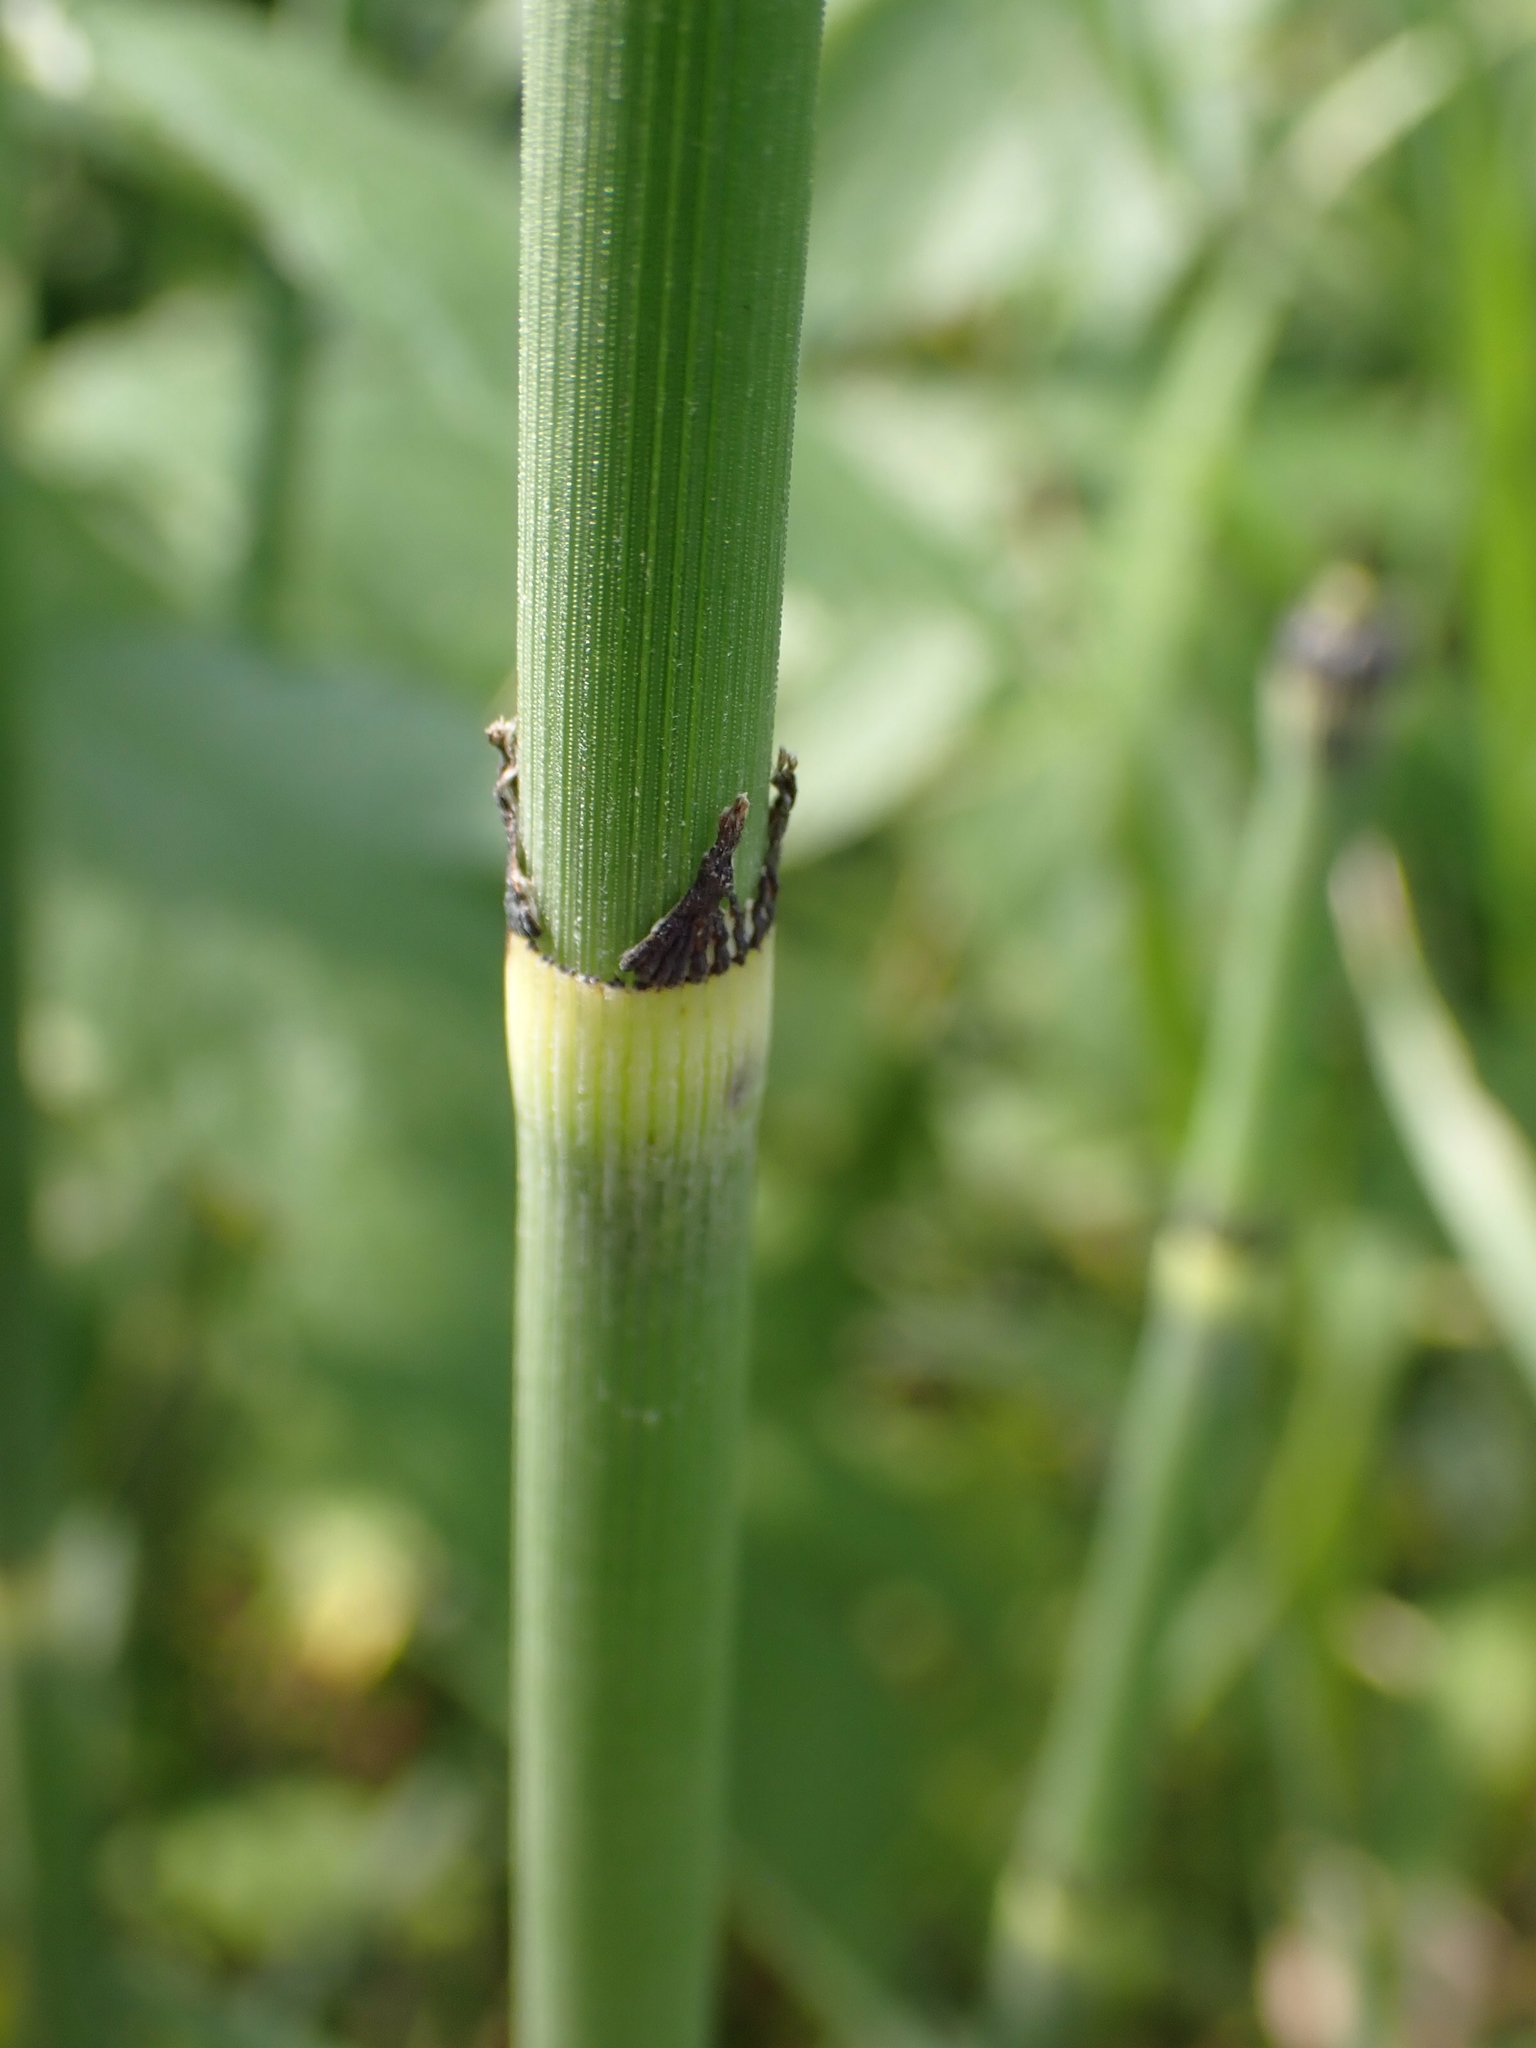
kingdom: Plantae
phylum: Tracheophyta
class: Polypodiopsida
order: Equisetales
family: Equisetaceae
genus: Equisetum
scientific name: Equisetum praealtum
